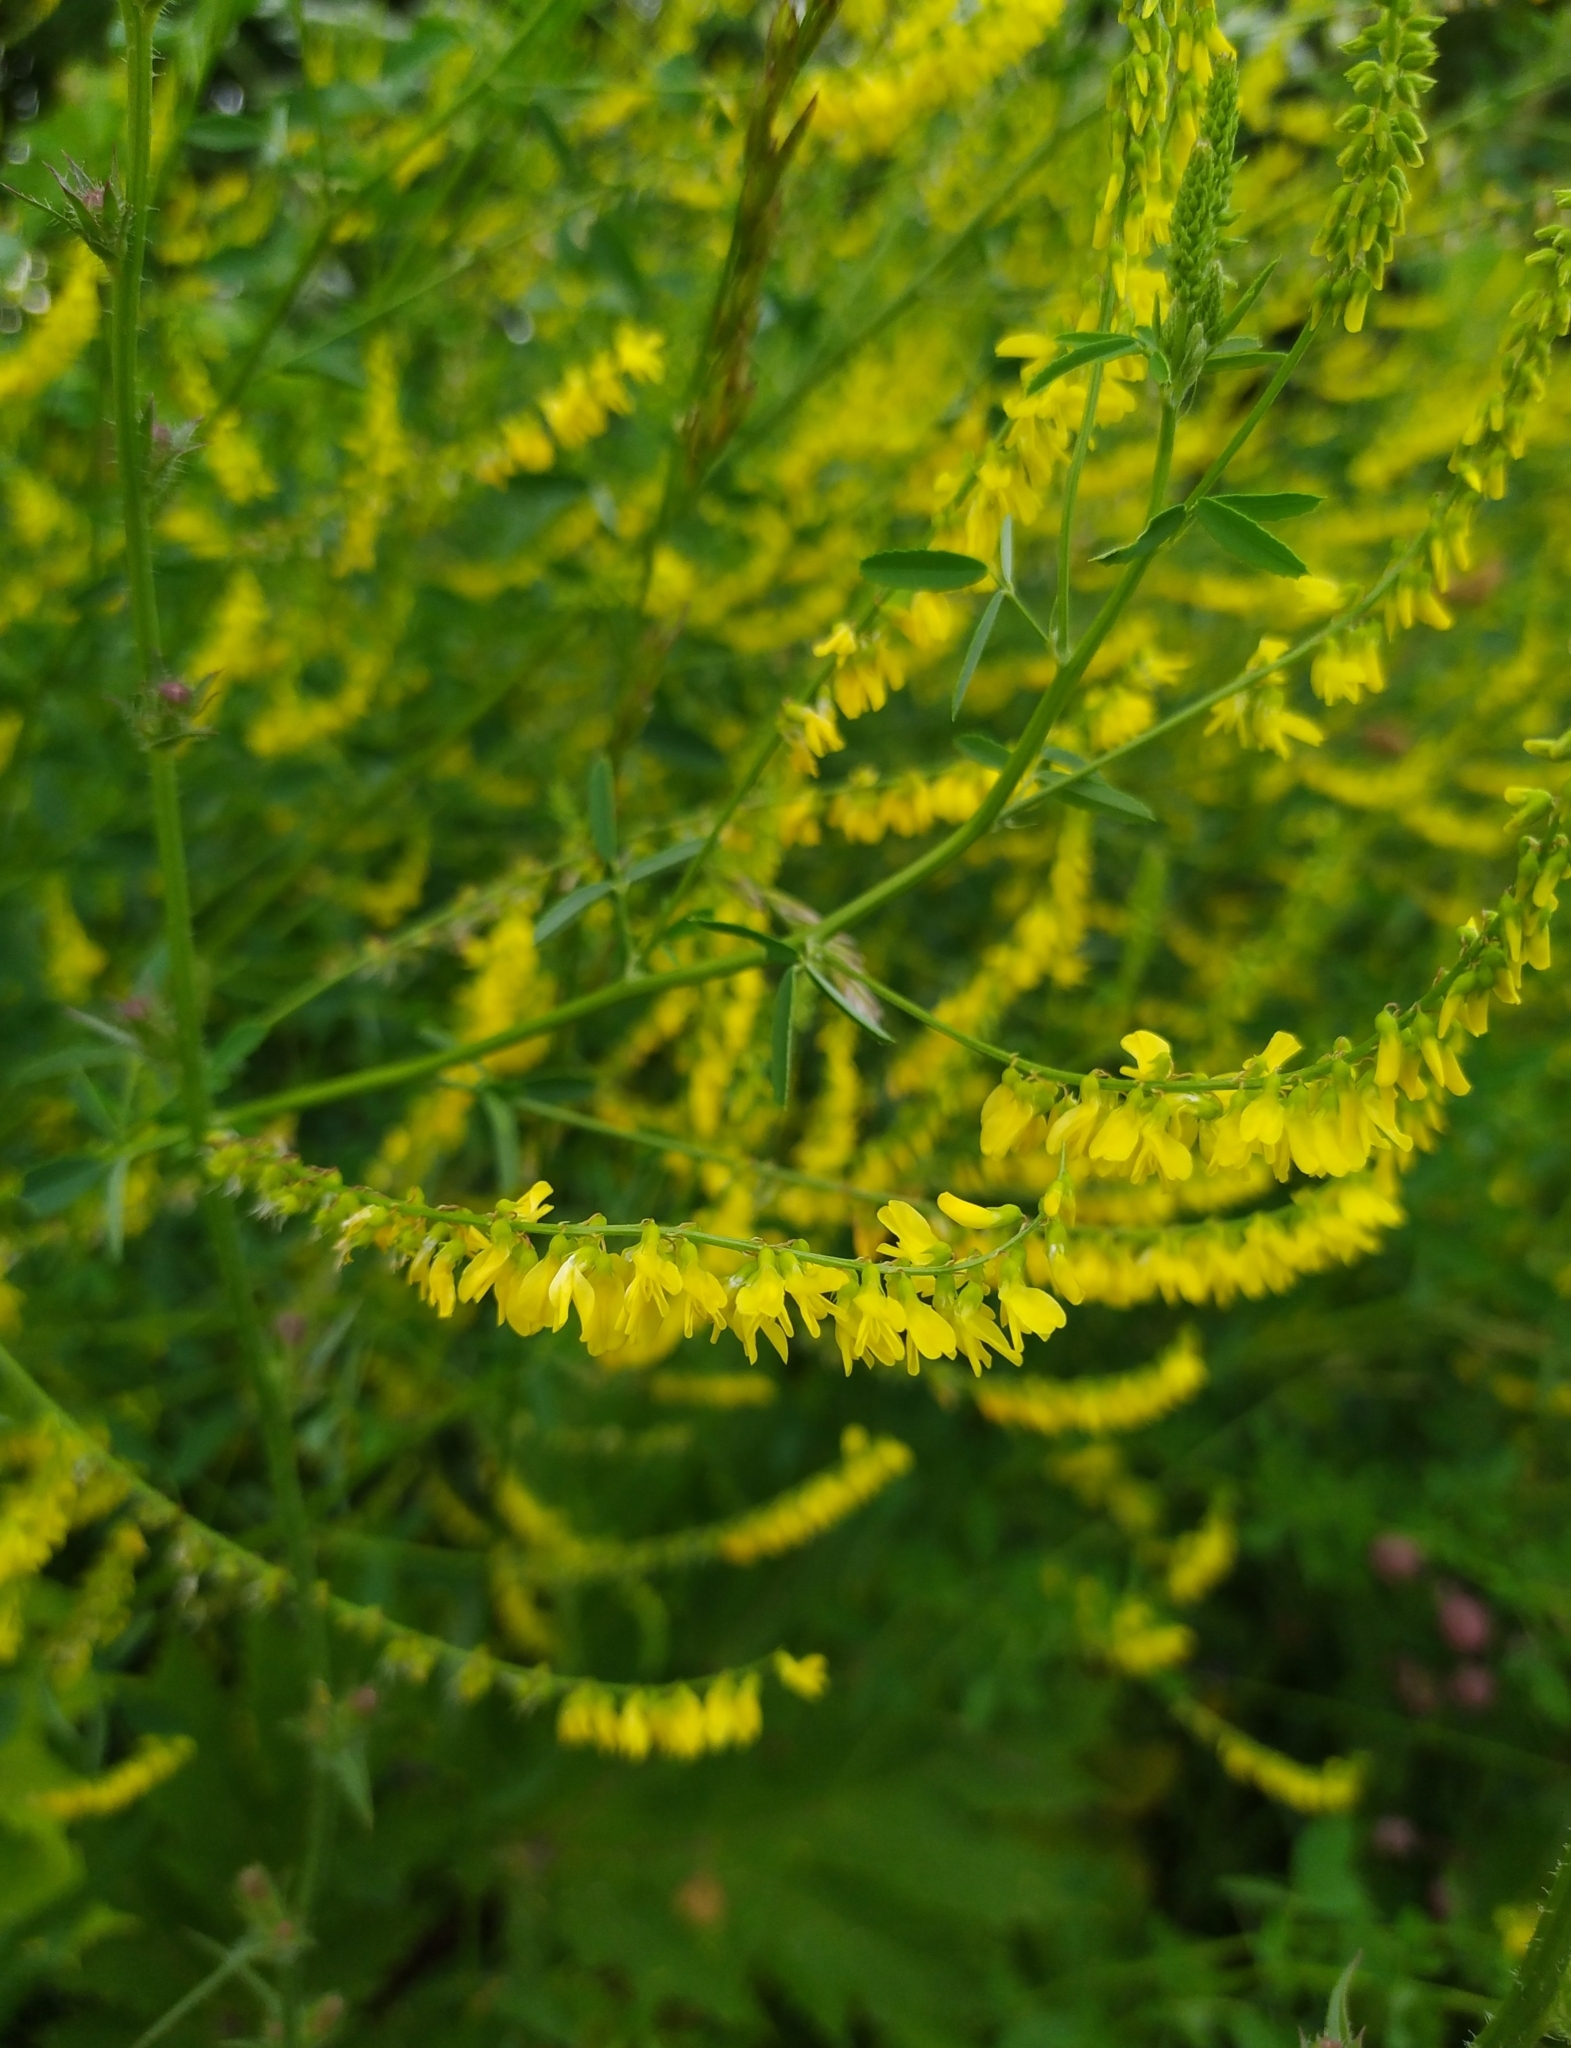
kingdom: Plantae
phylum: Tracheophyta
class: Magnoliopsida
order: Fabales
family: Fabaceae
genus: Melilotus
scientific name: Melilotus officinalis
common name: Sweetclover
